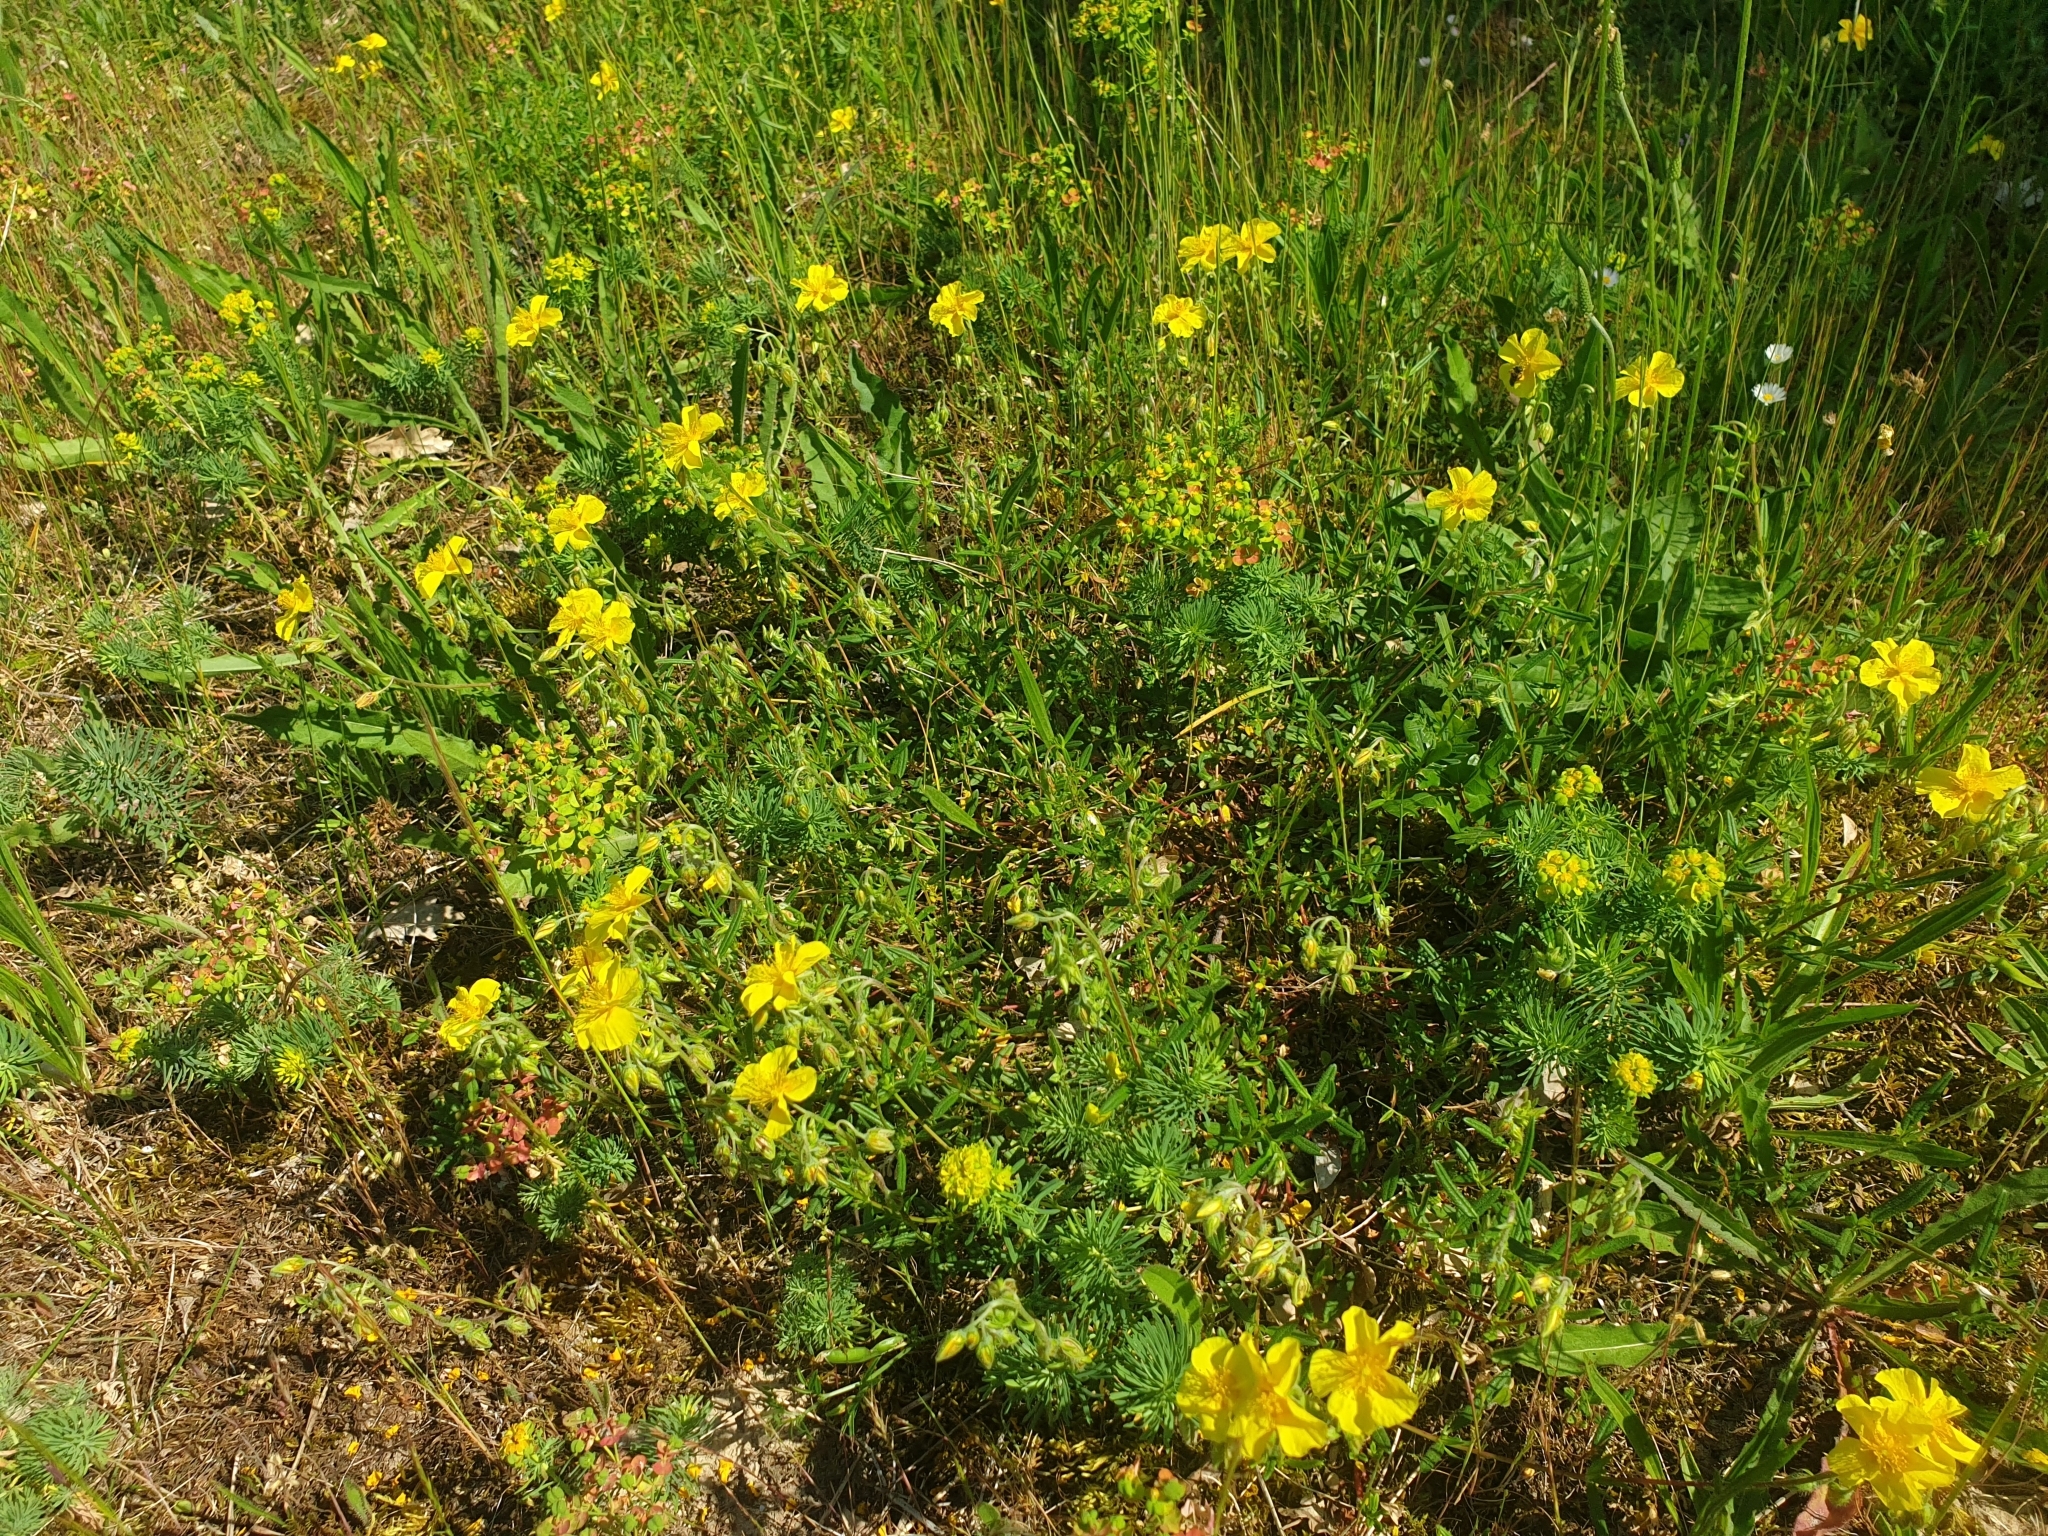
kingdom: Plantae
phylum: Tracheophyta
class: Magnoliopsida
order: Malvales
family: Cistaceae
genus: Helianthemum
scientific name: Helianthemum nummularium
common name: Common rock-rose
